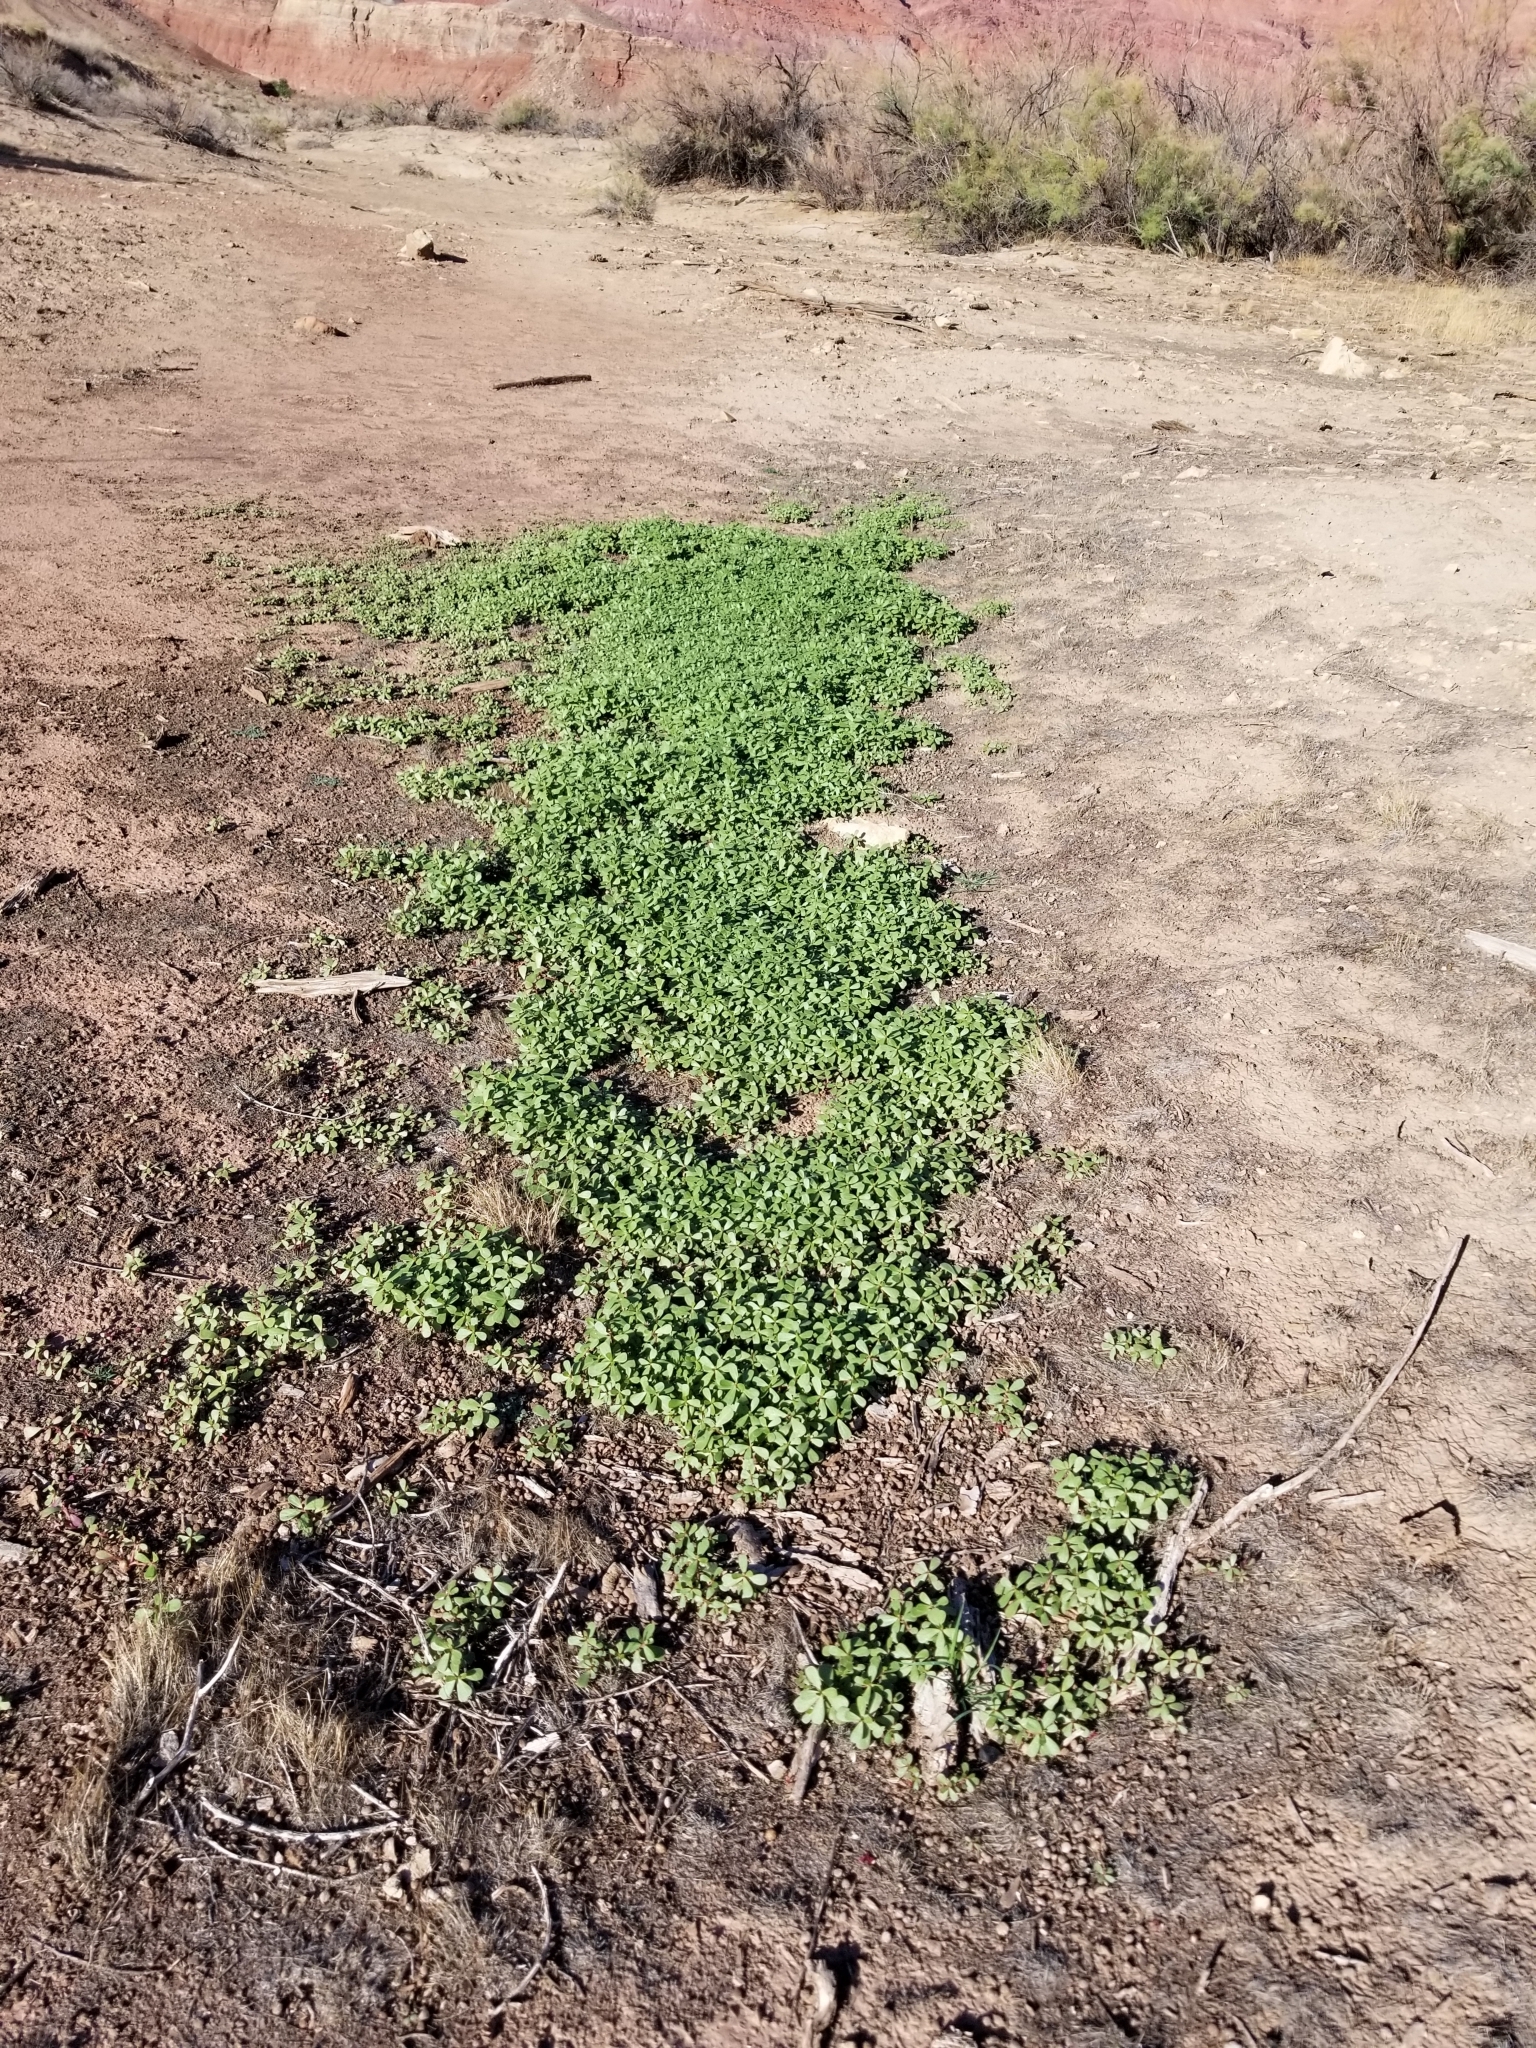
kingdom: Plantae
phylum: Tracheophyta
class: Magnoliopsida
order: Caryophyllales
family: Portulacaceae
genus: Portulaca
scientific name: Portulaca oleracea
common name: Common purslane
